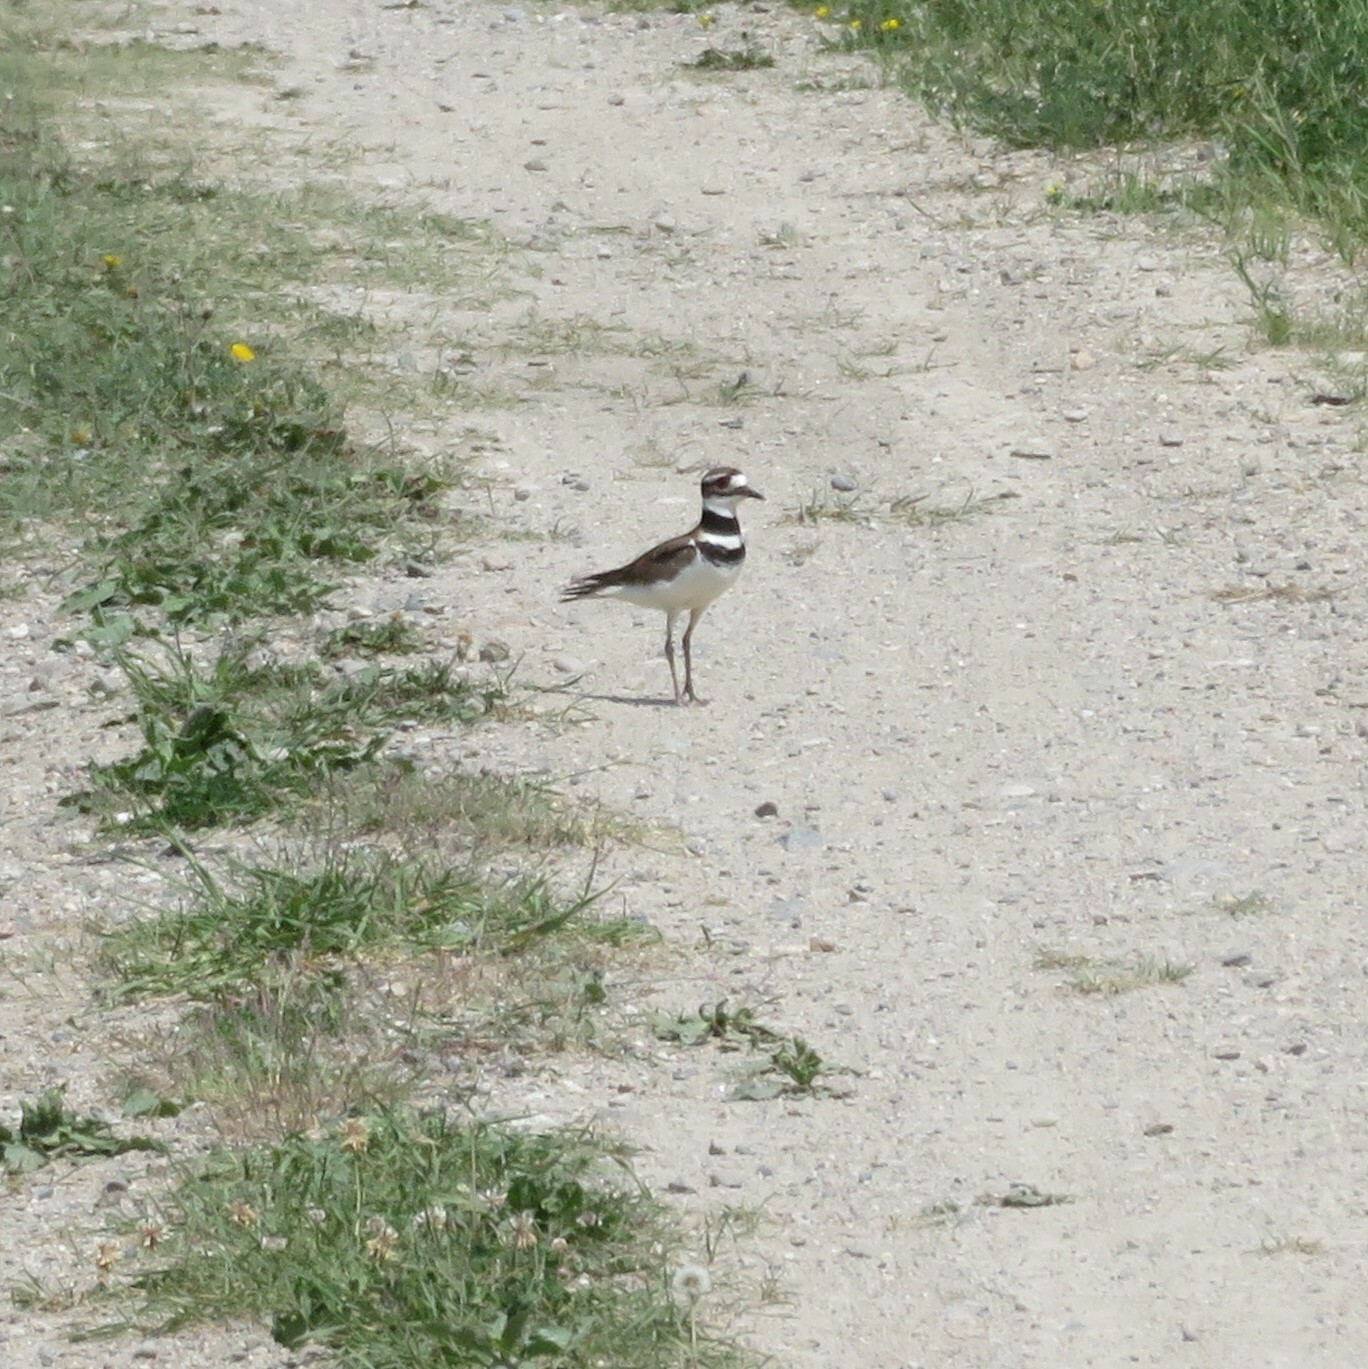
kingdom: Animalia
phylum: Chordata
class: Aves
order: Charadriiformes
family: Charadriidae
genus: Charadrius
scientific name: Charadrius vociferus
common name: Killdeer
